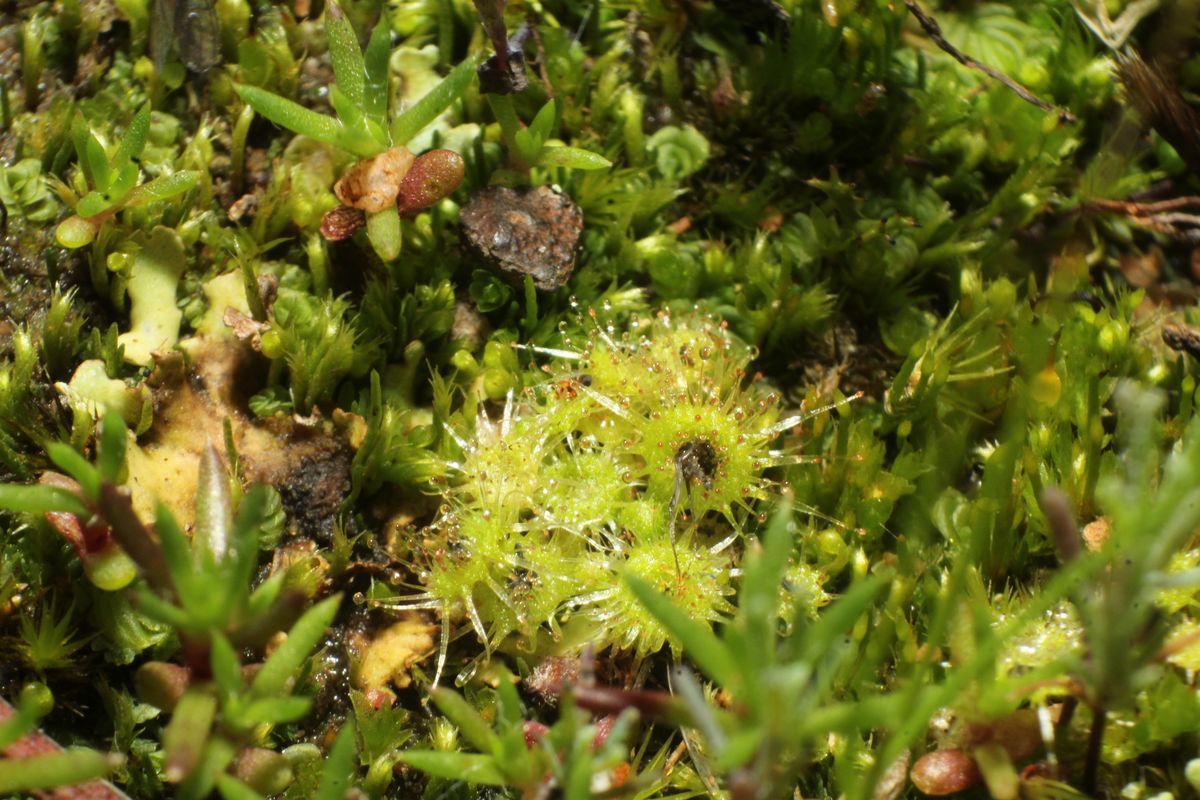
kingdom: Plantae
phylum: Tracheophyta
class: Magnoliopsida
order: Caryophyllales
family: Droseraceae
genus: Drosera
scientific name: Drosera glanduligera
